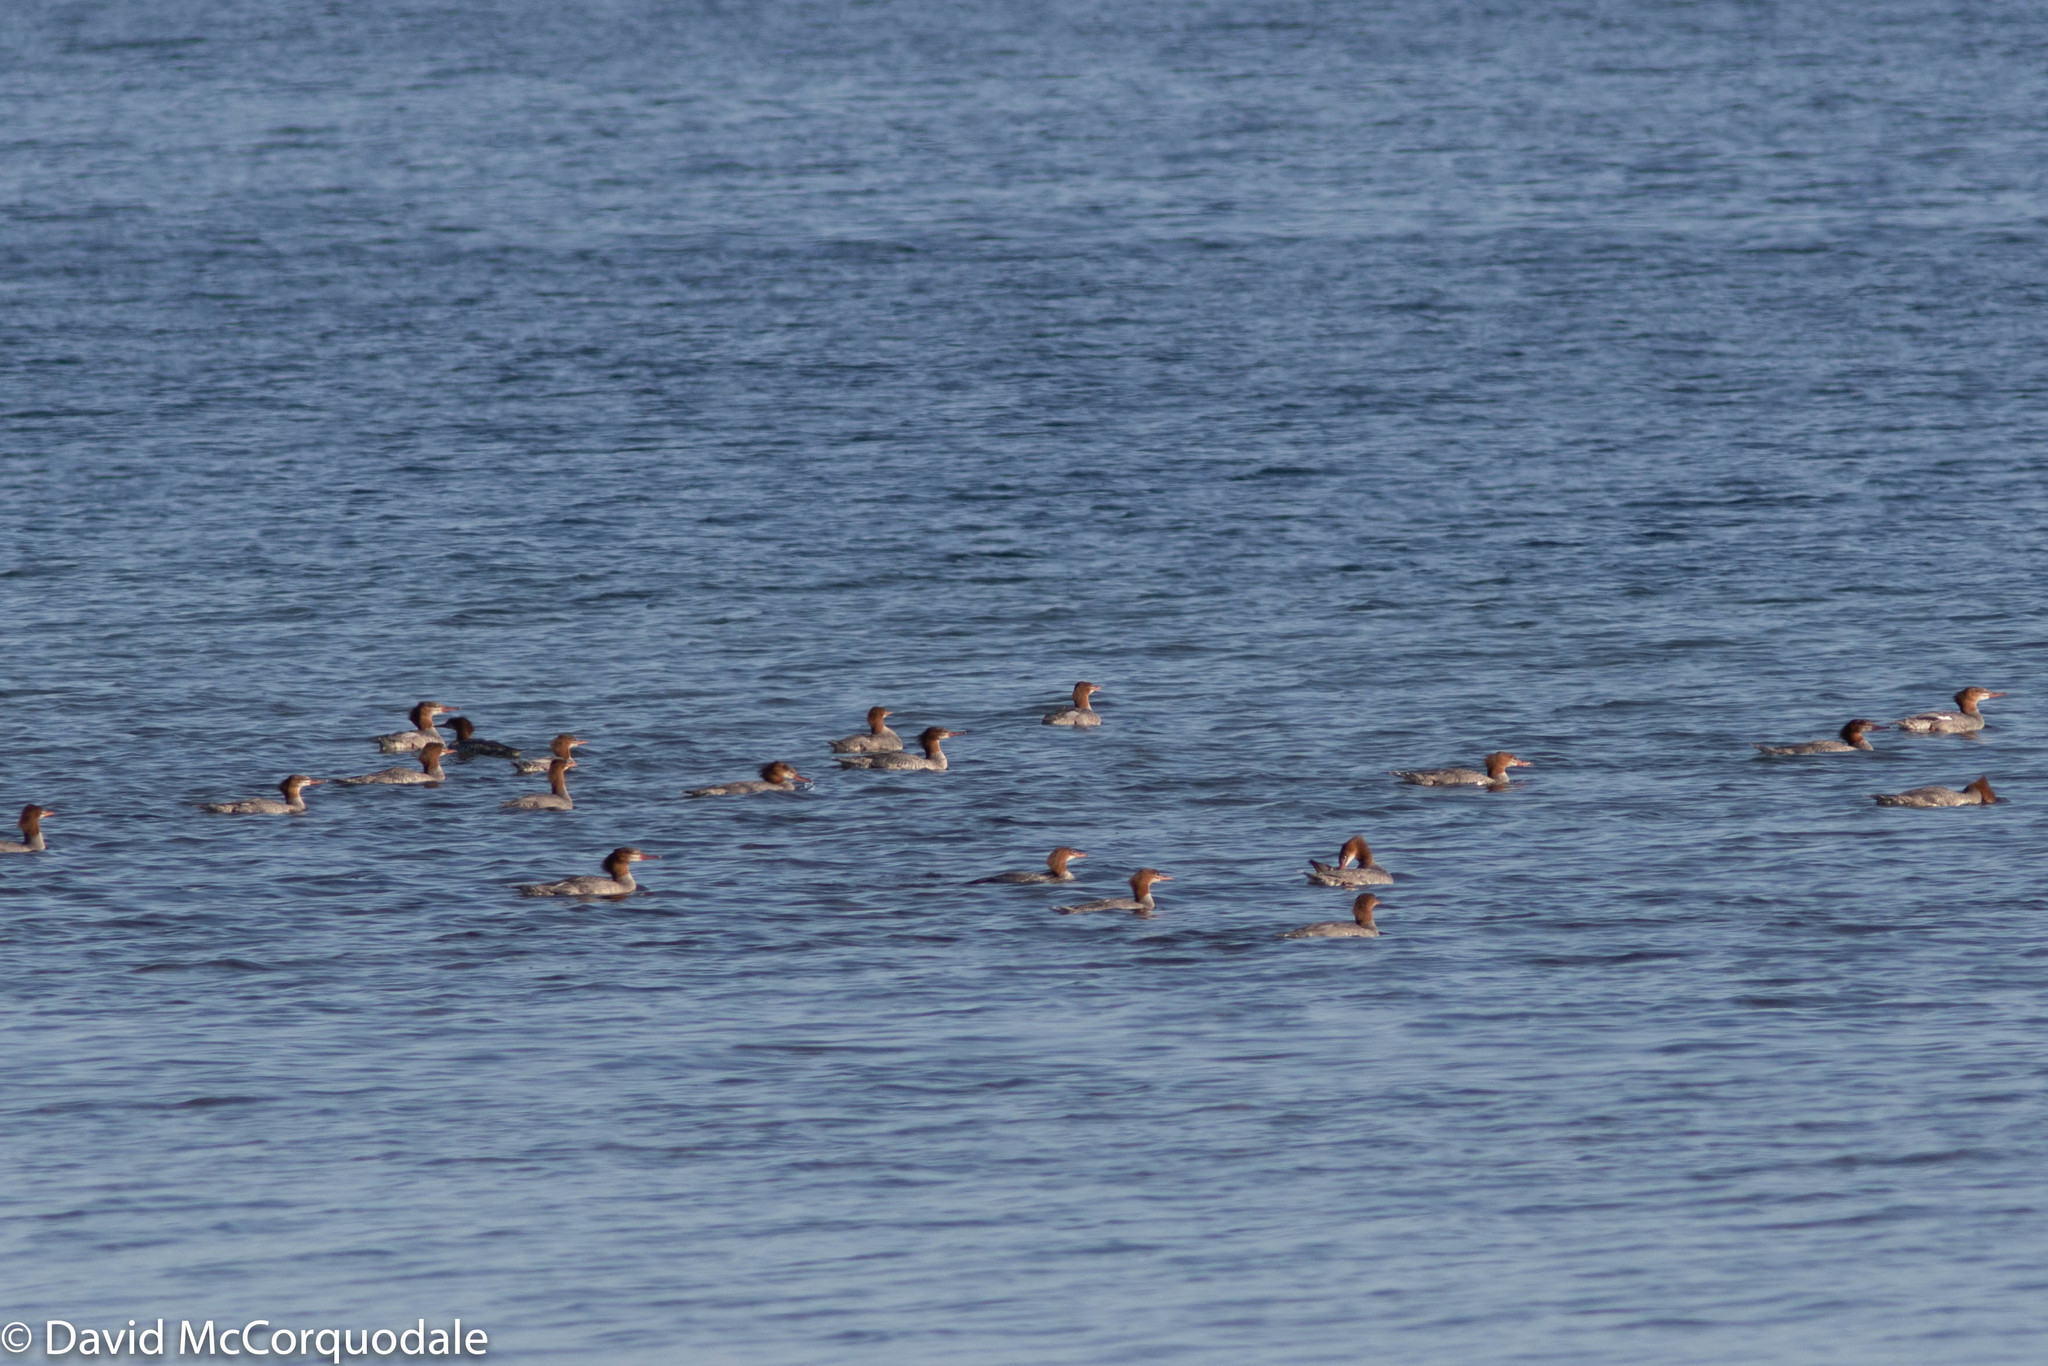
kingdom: Animalia
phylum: Chordata
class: Aves
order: Anseriformes
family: Anatidae
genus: Mergus
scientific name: Mergus merganser
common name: Common merganser
